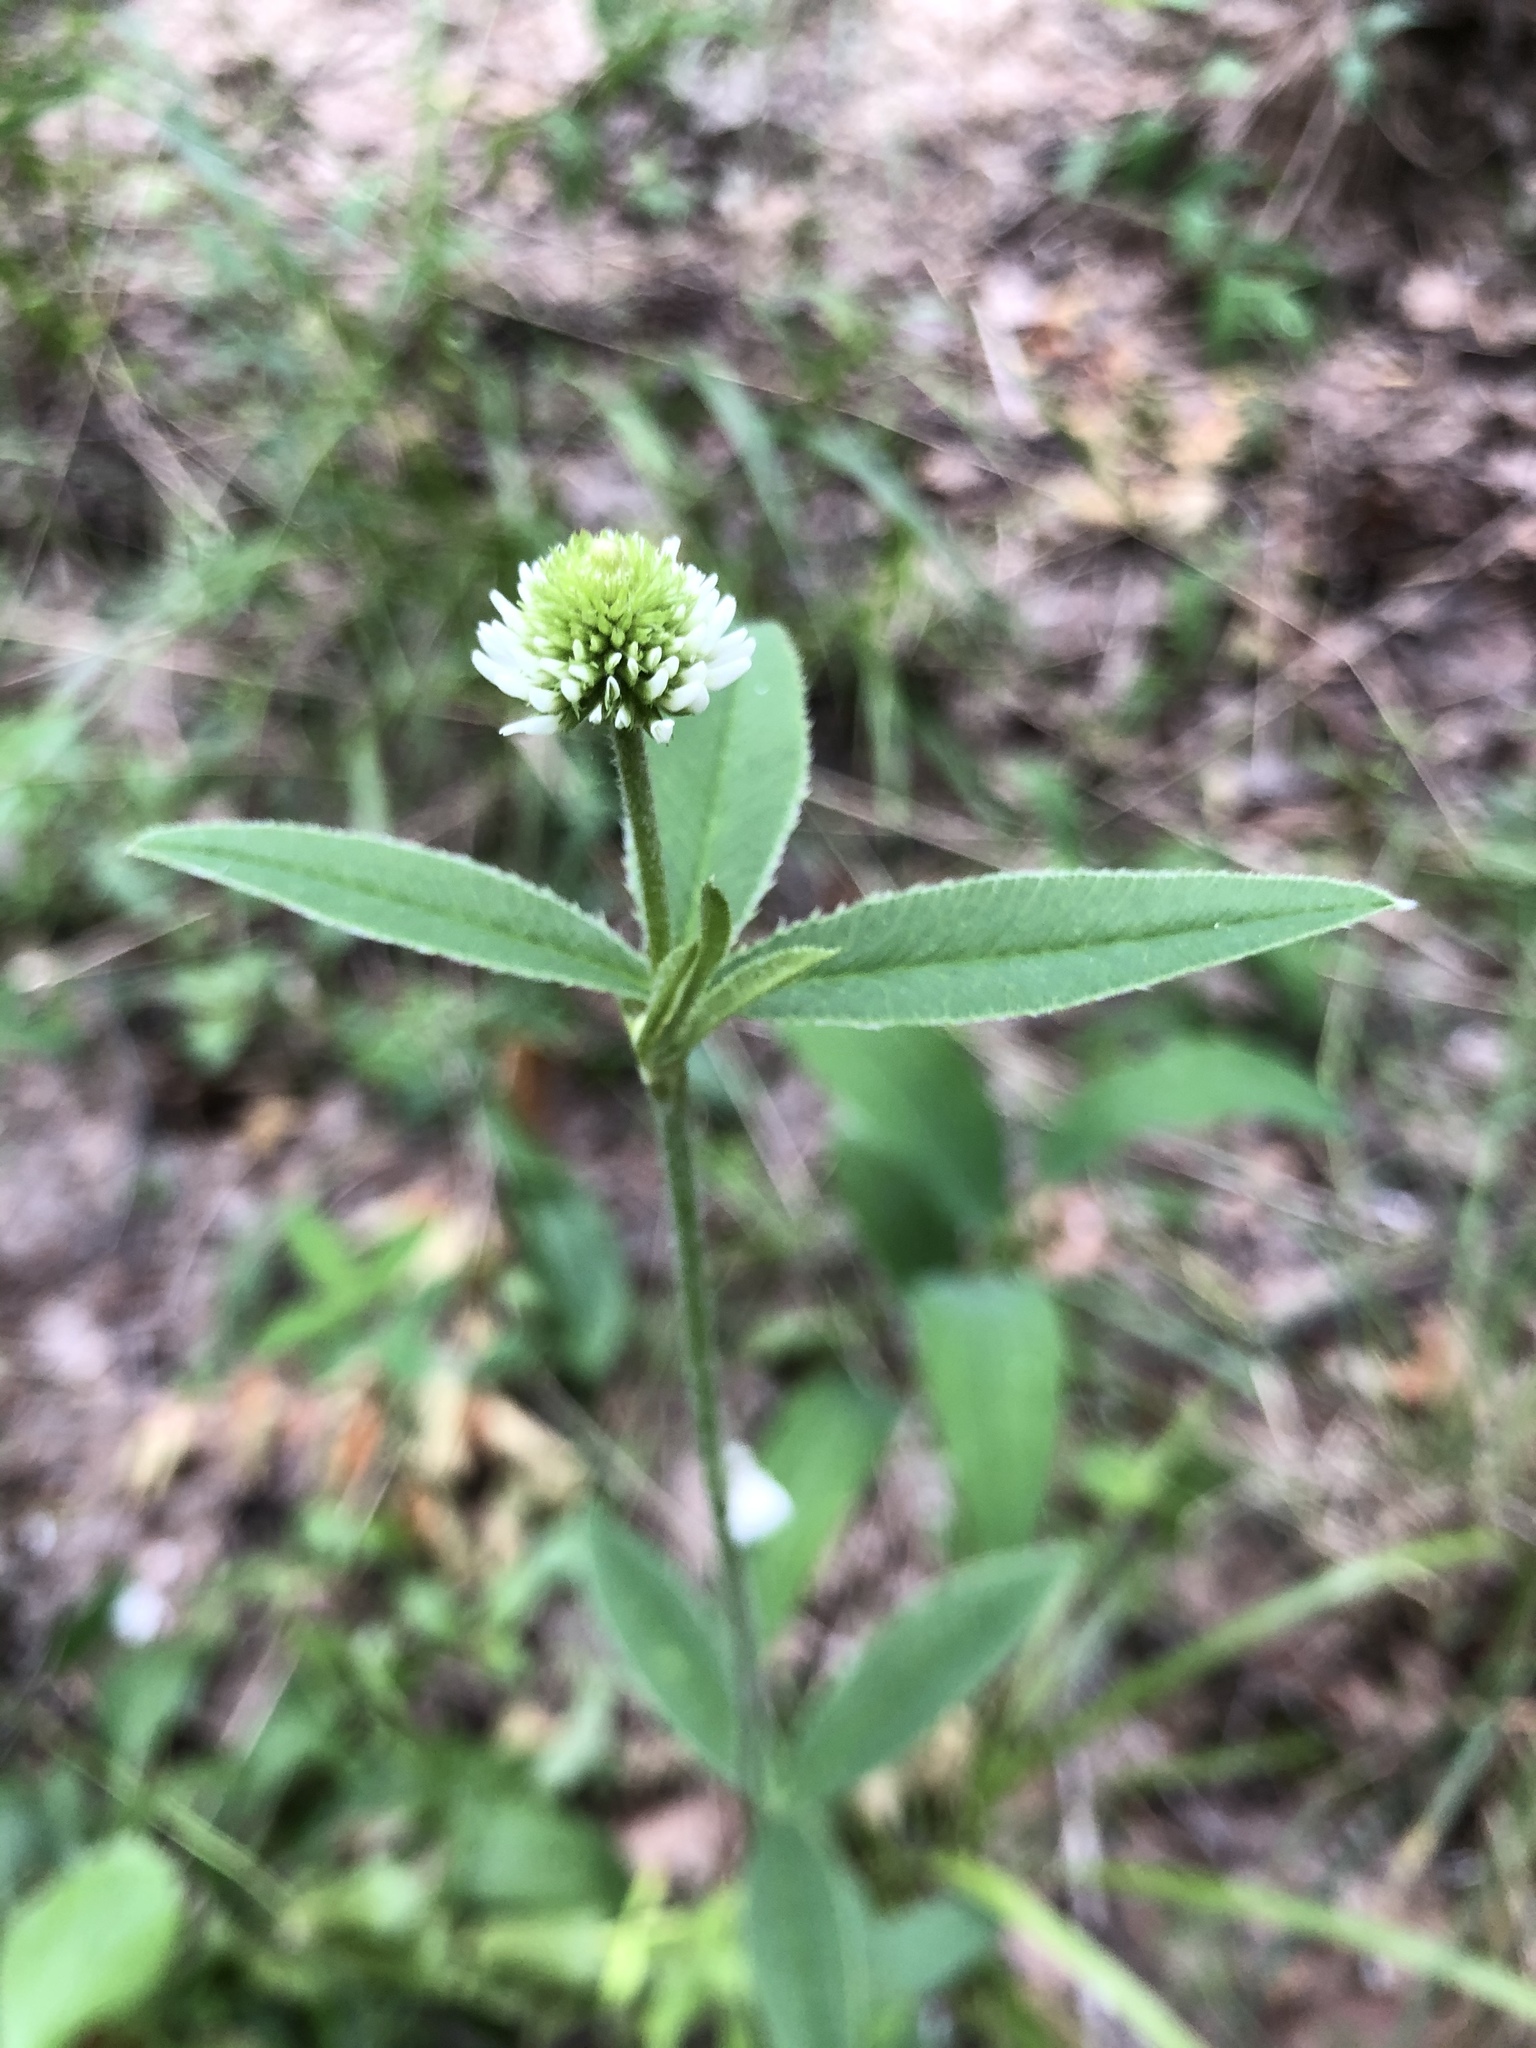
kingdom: Plantae
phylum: Tracheophyta
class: Magnoliopsida
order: Fabales
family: Fabaceae
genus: Trifolium
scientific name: Trifolium montanum
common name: Mountain clover
